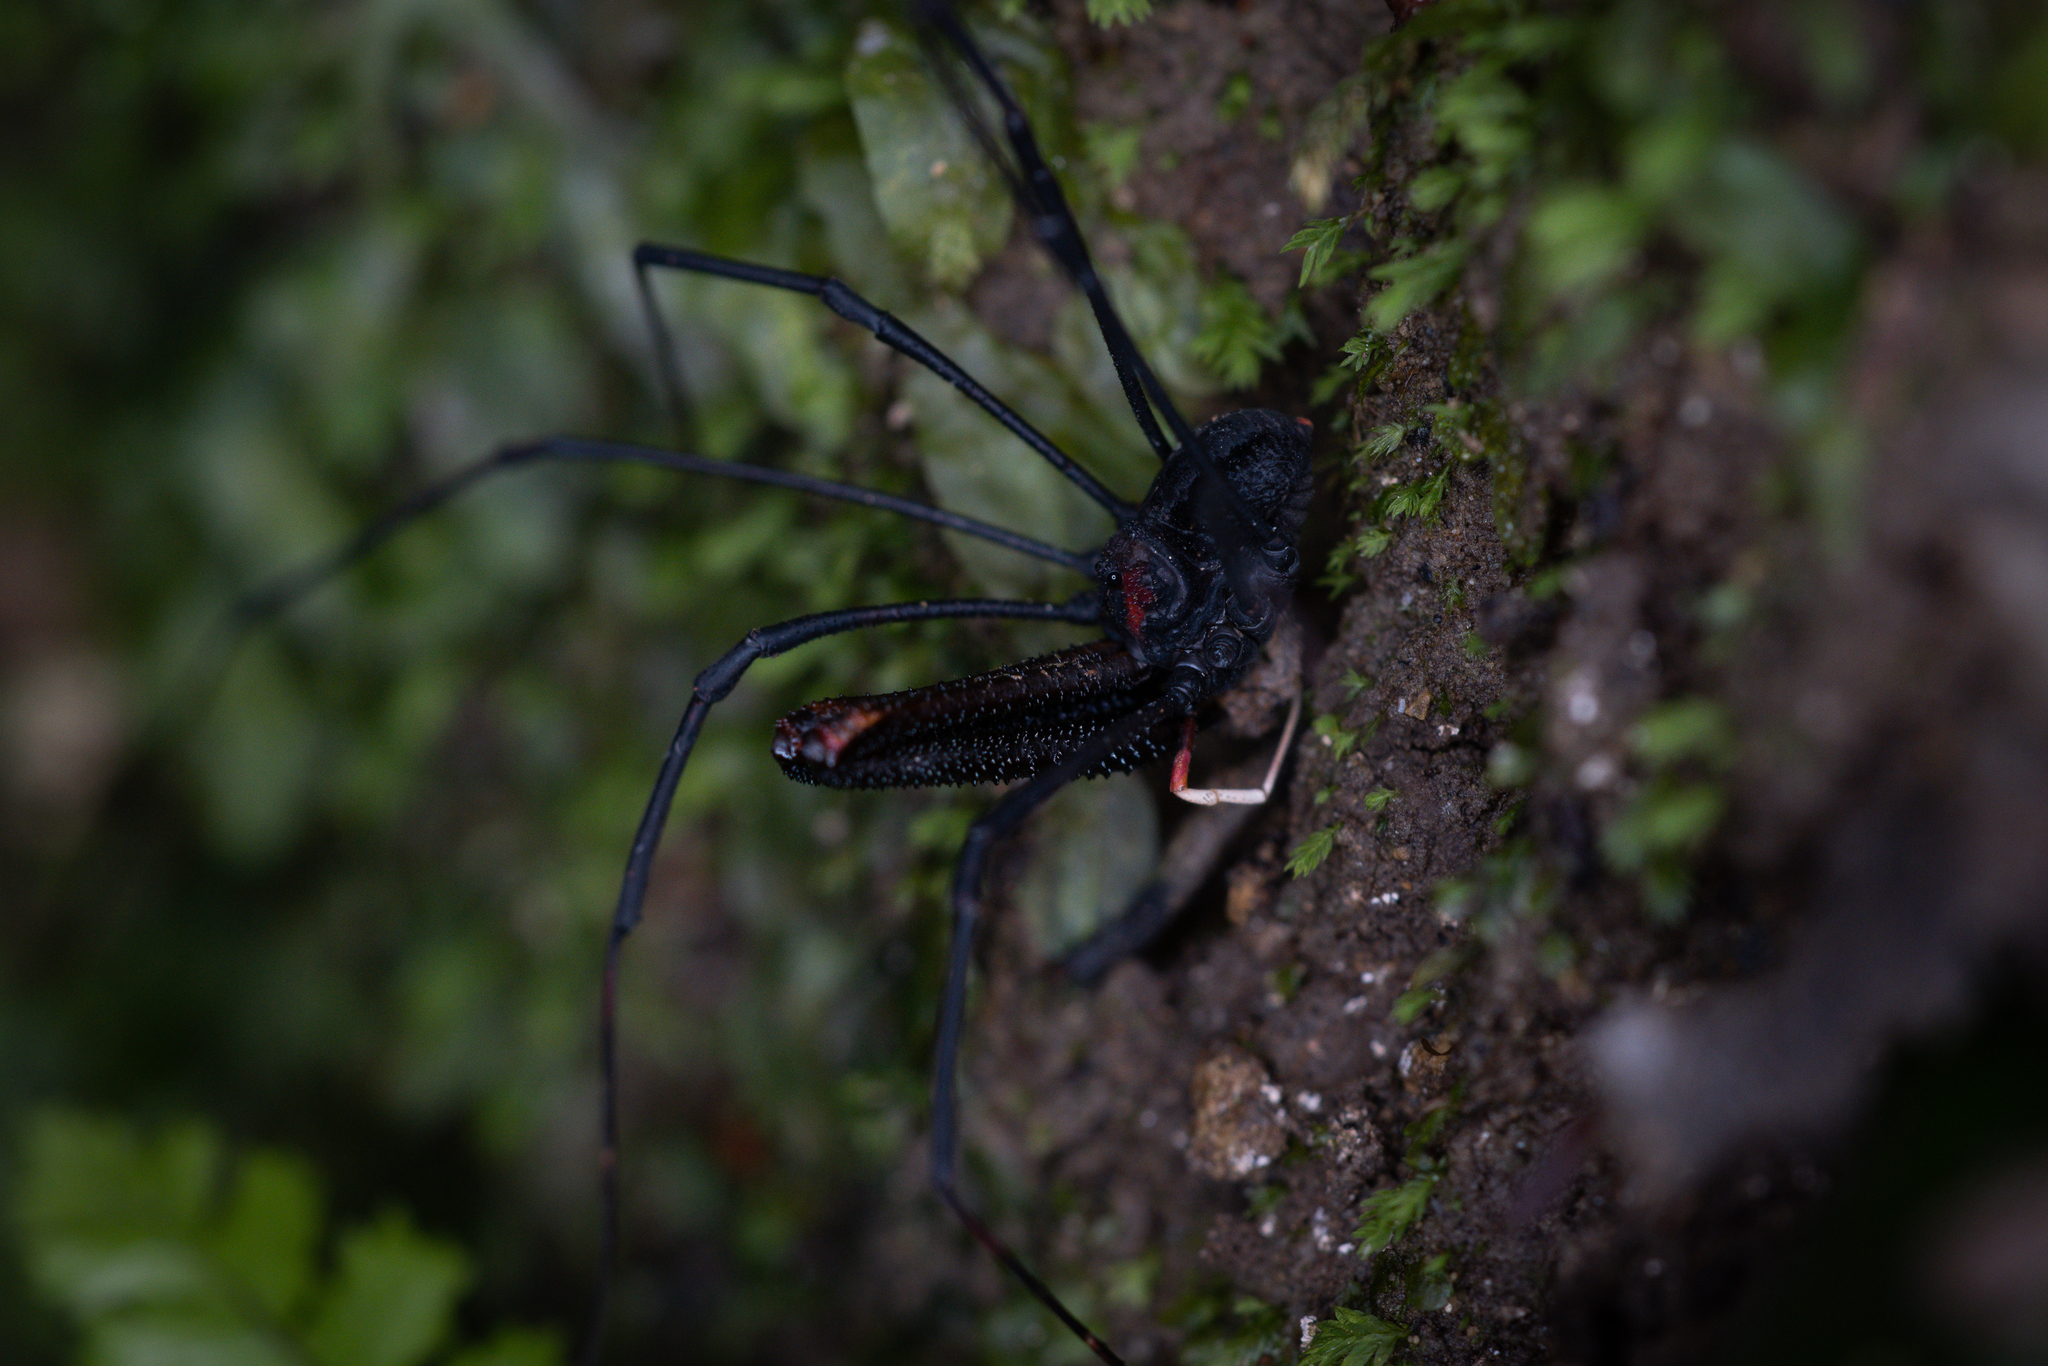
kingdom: Animalia
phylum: Arthropoda
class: Arachnida
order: Opiliones
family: Neopilionidae
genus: Forsteropsalis
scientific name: Forsteropsalis inconstans
